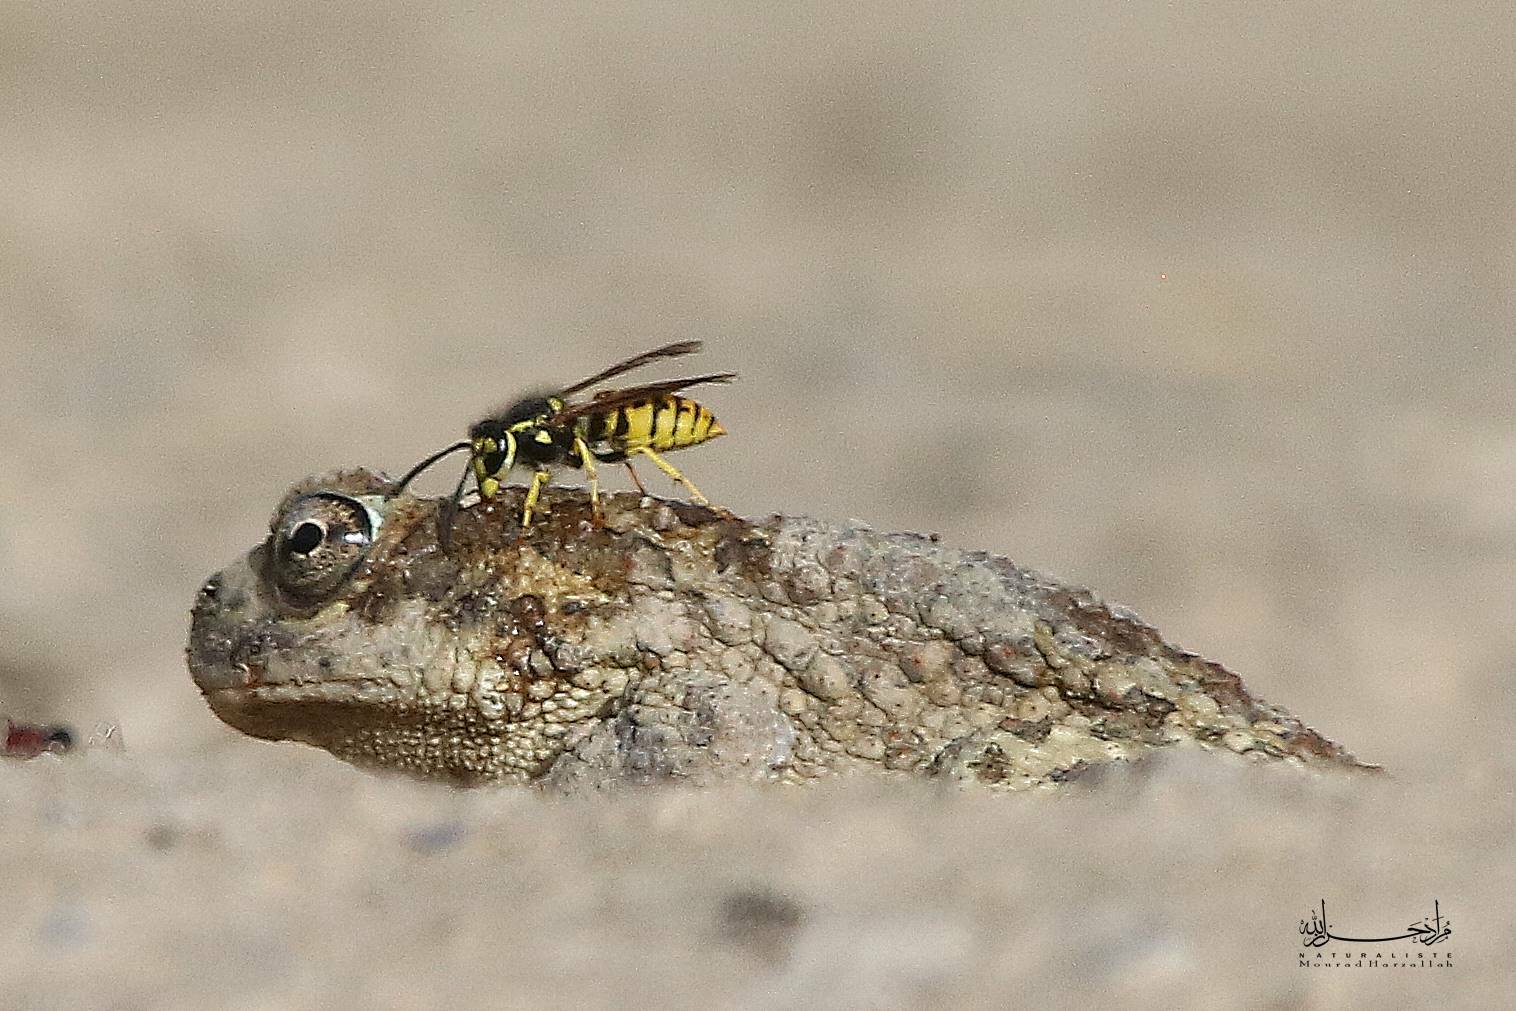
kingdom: Animalia
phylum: Arthropoda
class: Insecta
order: Hymenoptera
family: Vespidae
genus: Vespula
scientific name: Vespula germanica
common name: German wasp
